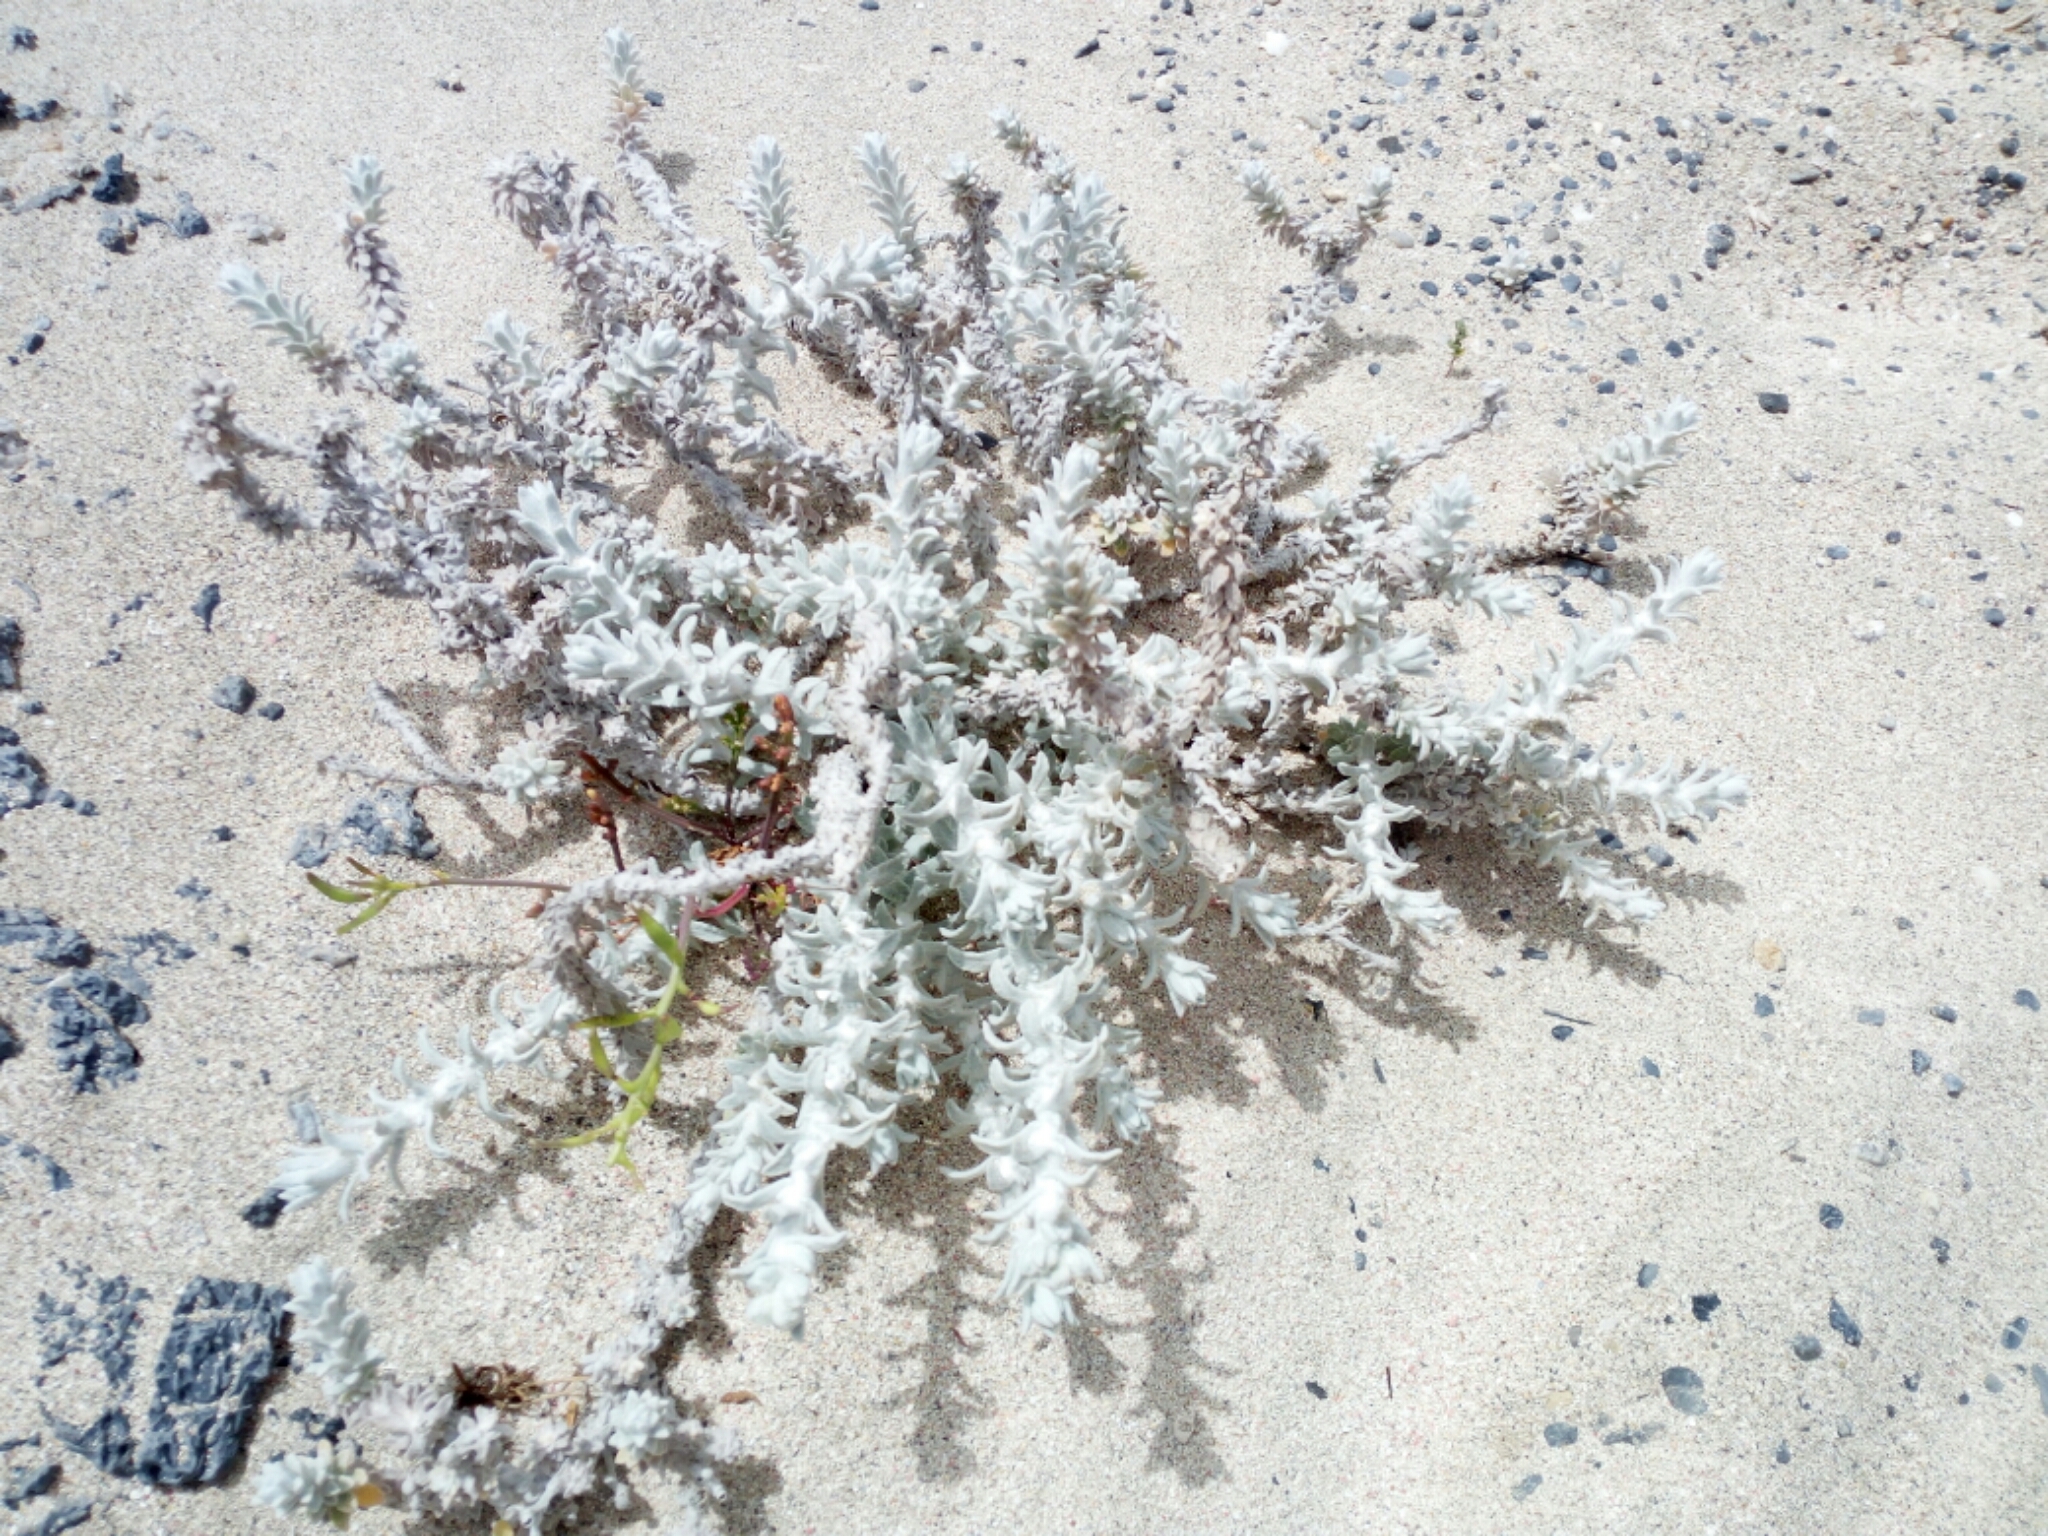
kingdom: Plantae
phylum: Tracheophyta
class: Magnoliopsida
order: Asterales
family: Asteraceae
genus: Achillea
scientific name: Achillea maritima
